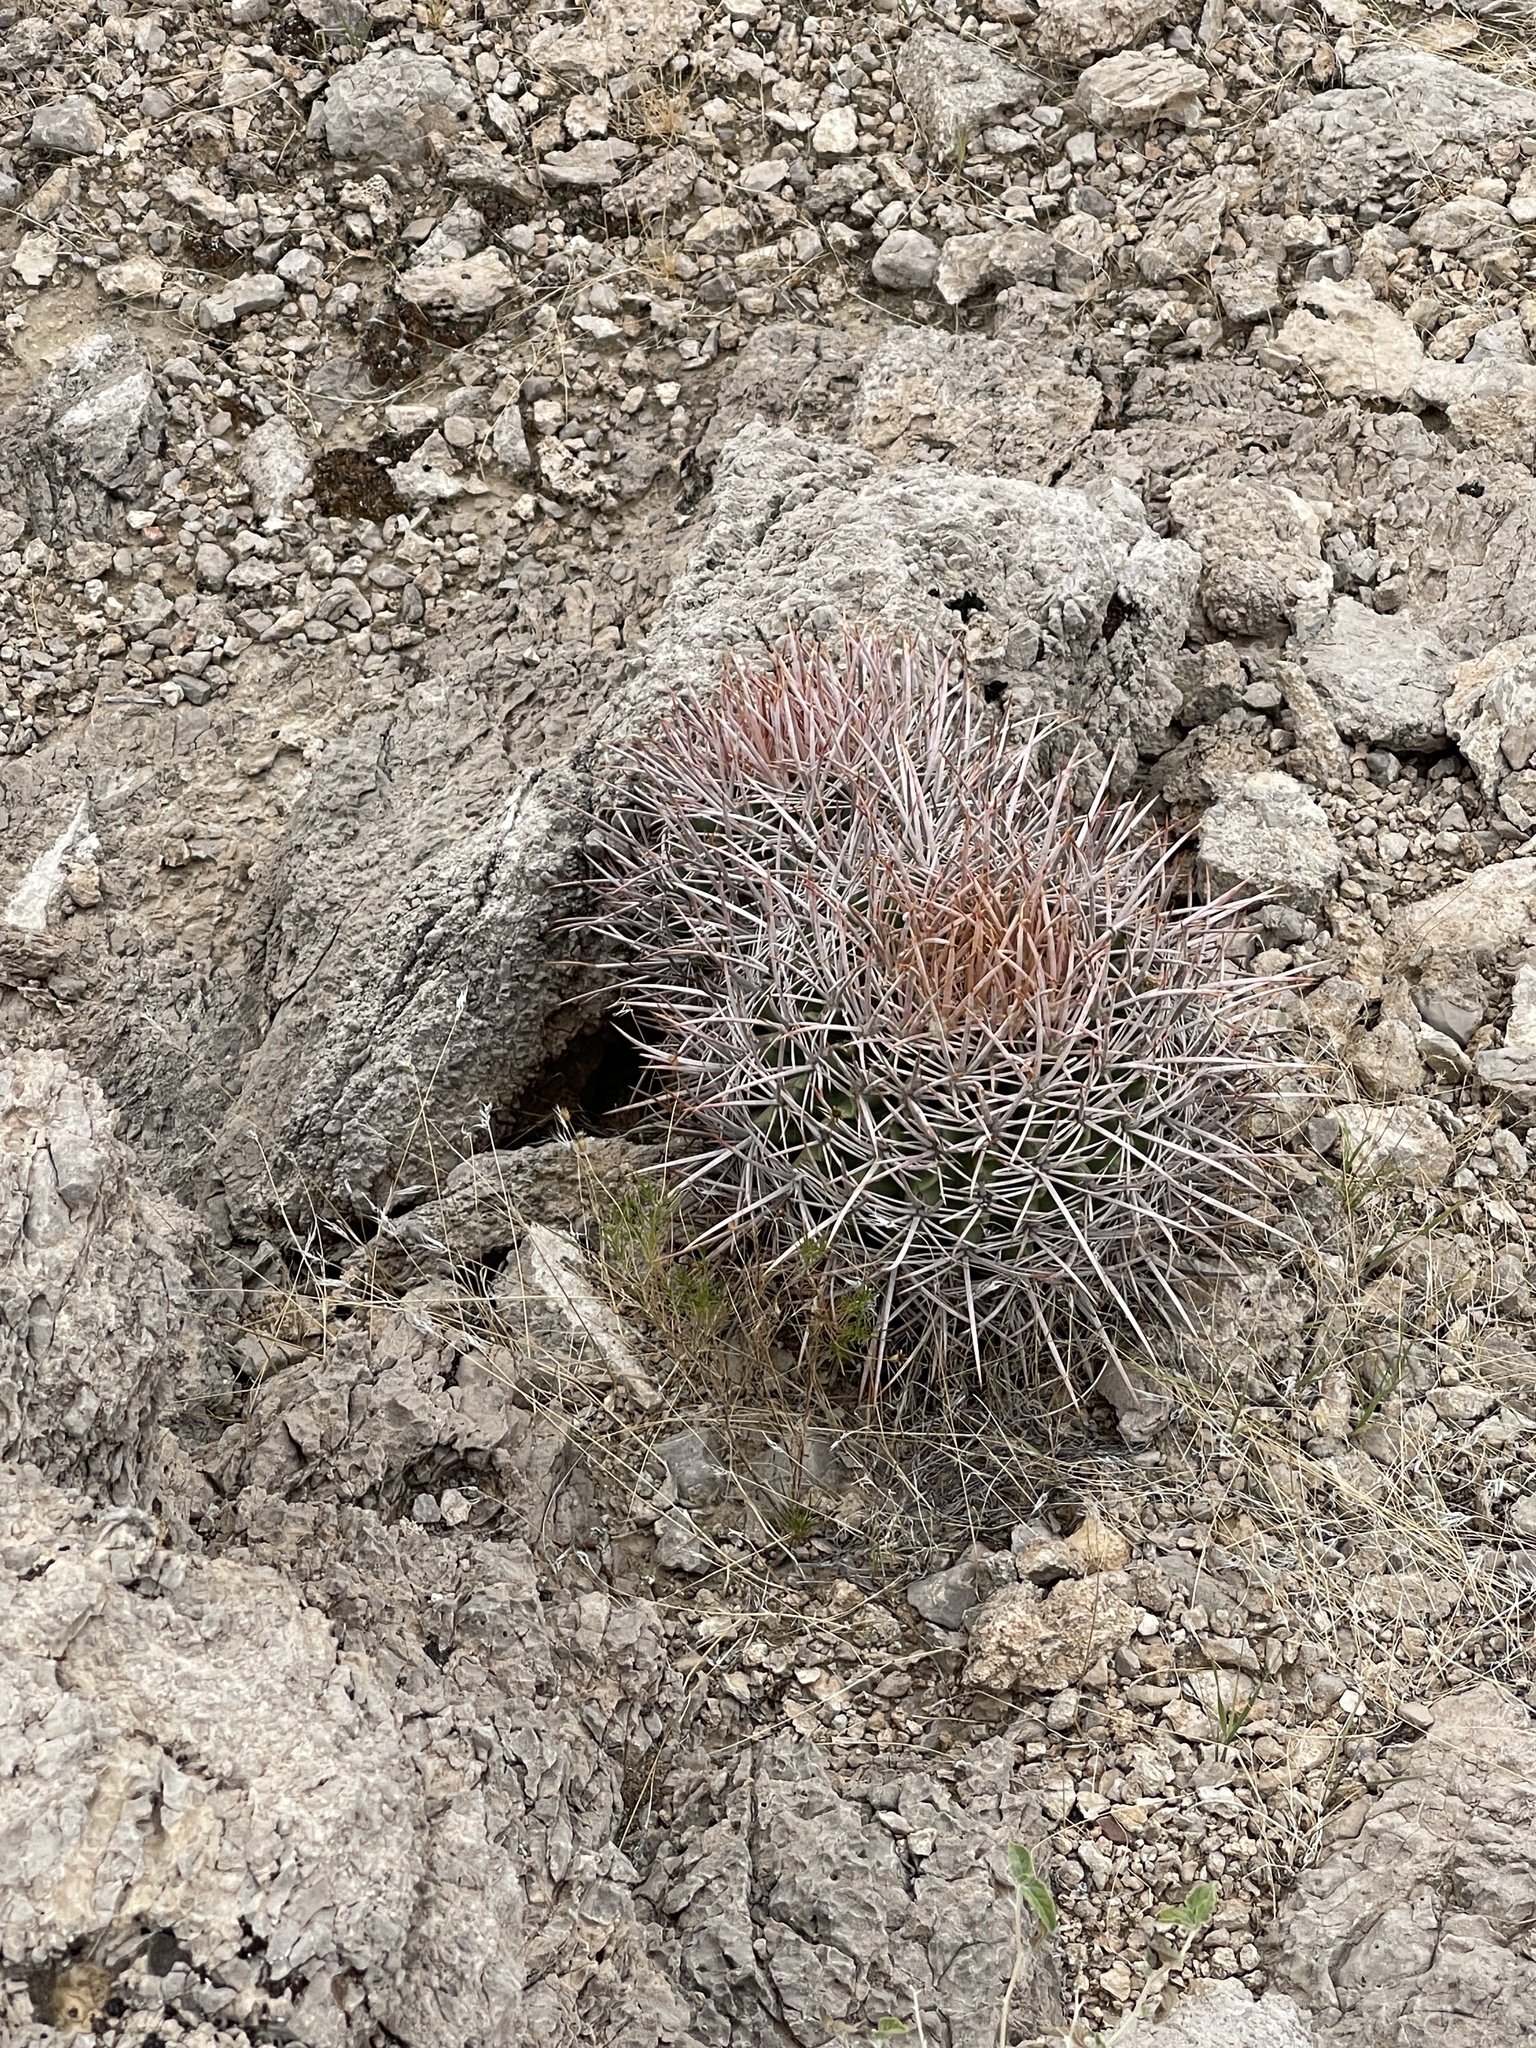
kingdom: Plantae
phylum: Tracheophyta
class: Magnoliopsida
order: Caryophyllales
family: Cactaceae
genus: Echinocactus
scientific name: Echinocactus polycephalus
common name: Cottontop cactus
